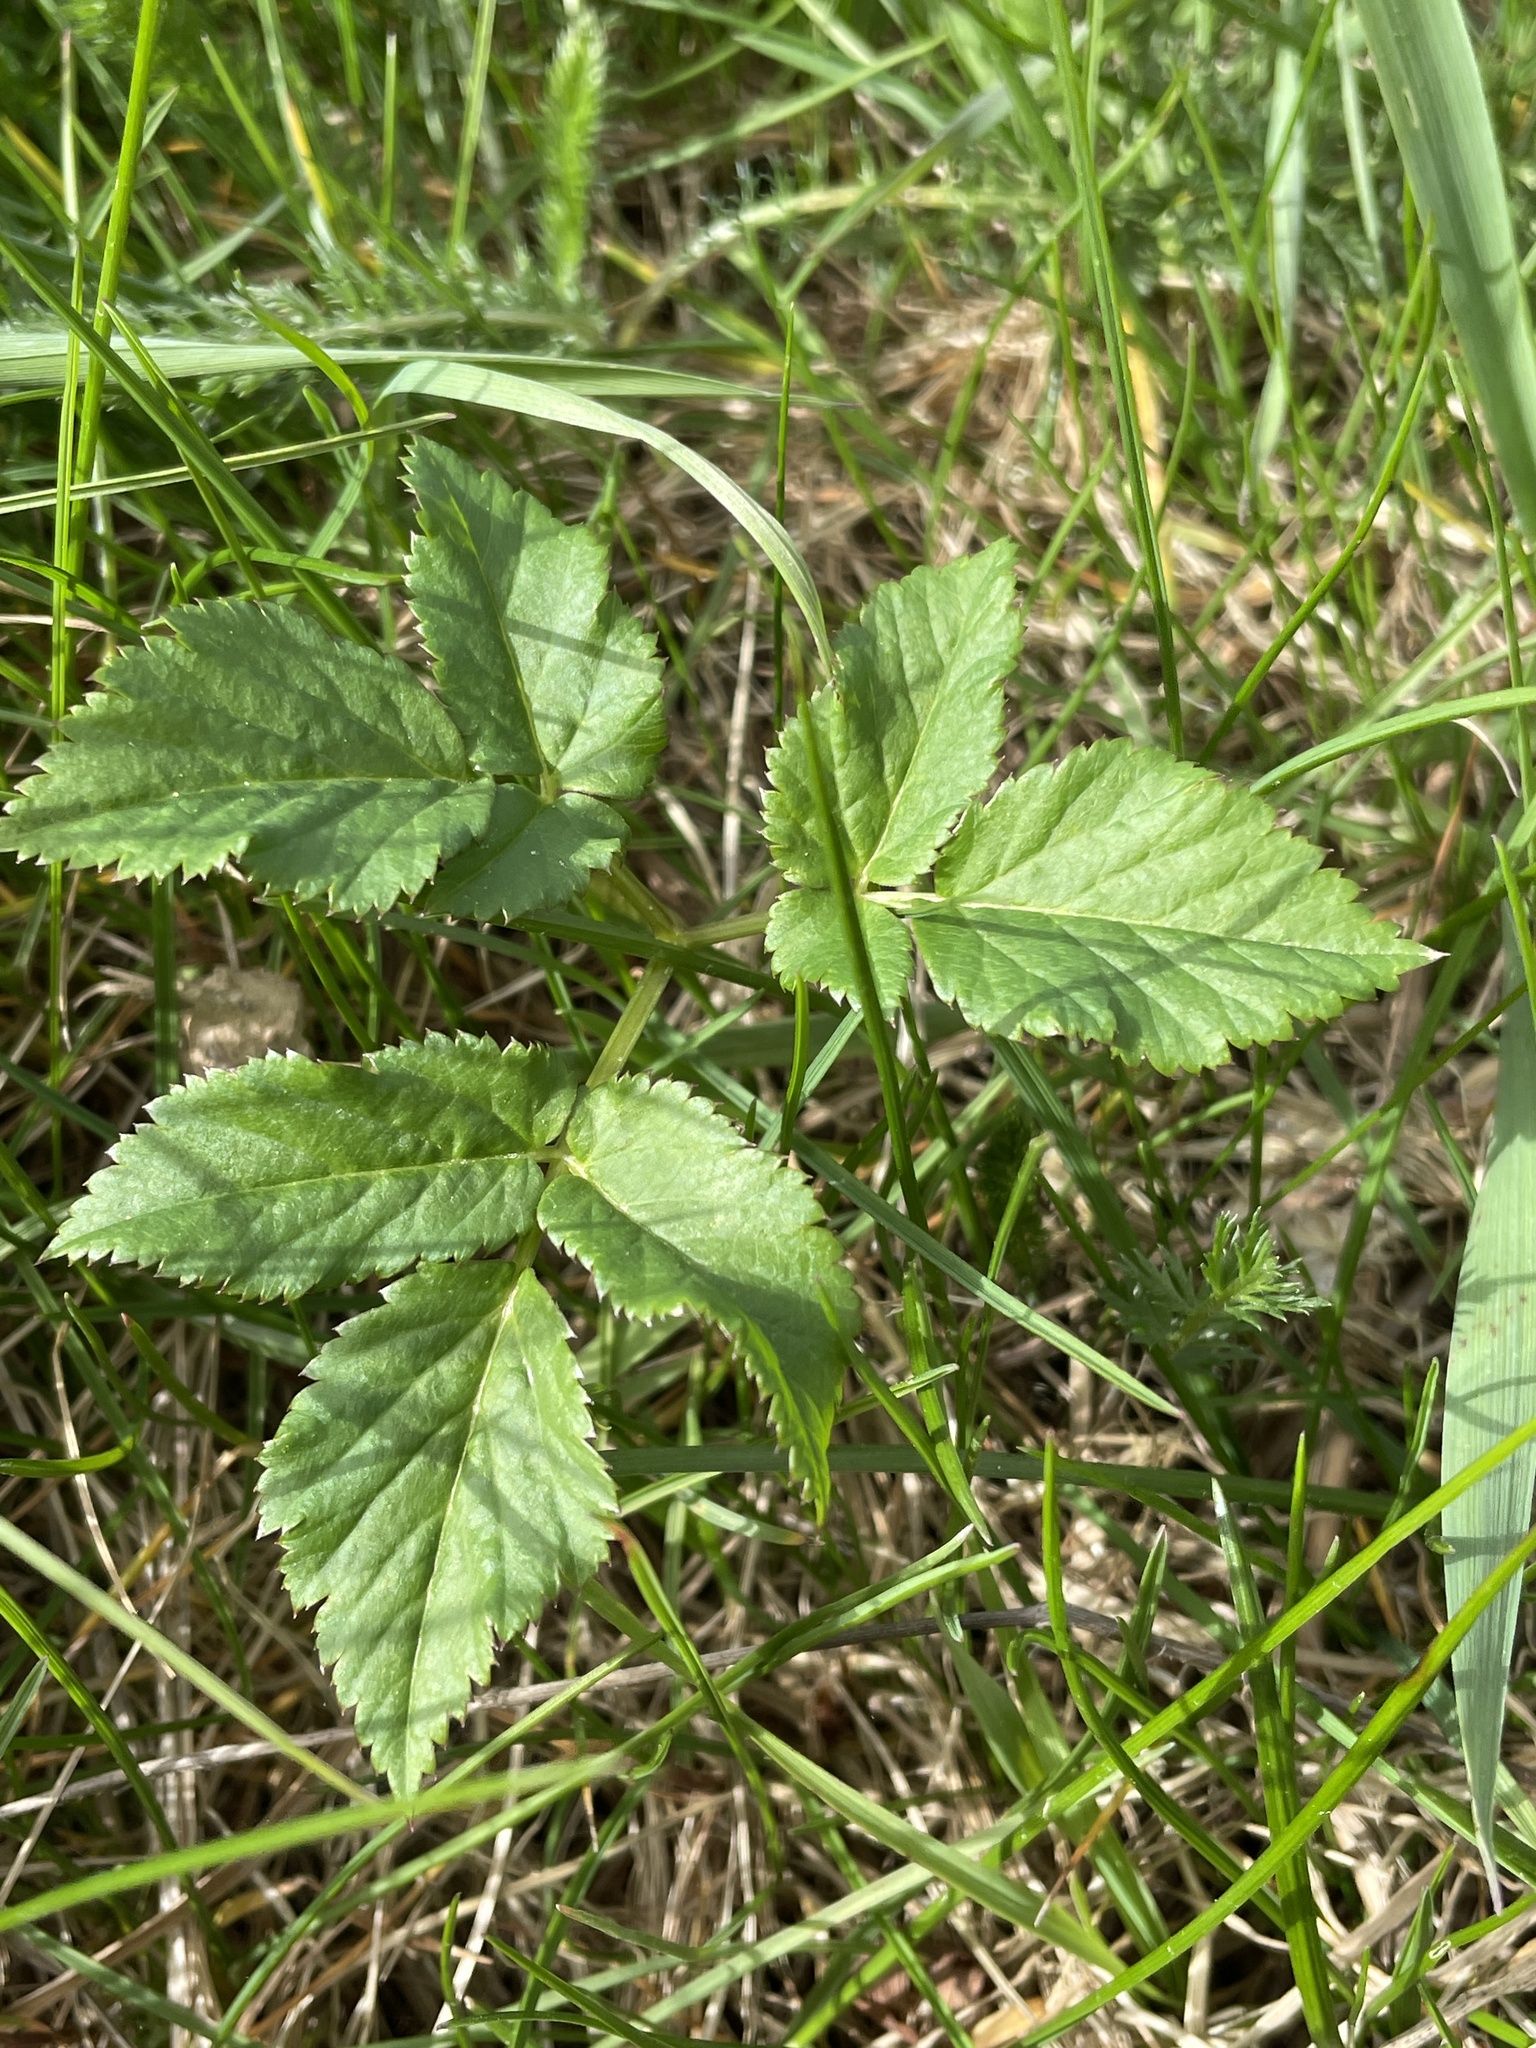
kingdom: Plantae
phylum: Tracheophyta
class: Magnoliopsida
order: Apiales
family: Apiaceae
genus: Aegopodium
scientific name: Aegopodium podagraria
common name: Ground-elder
